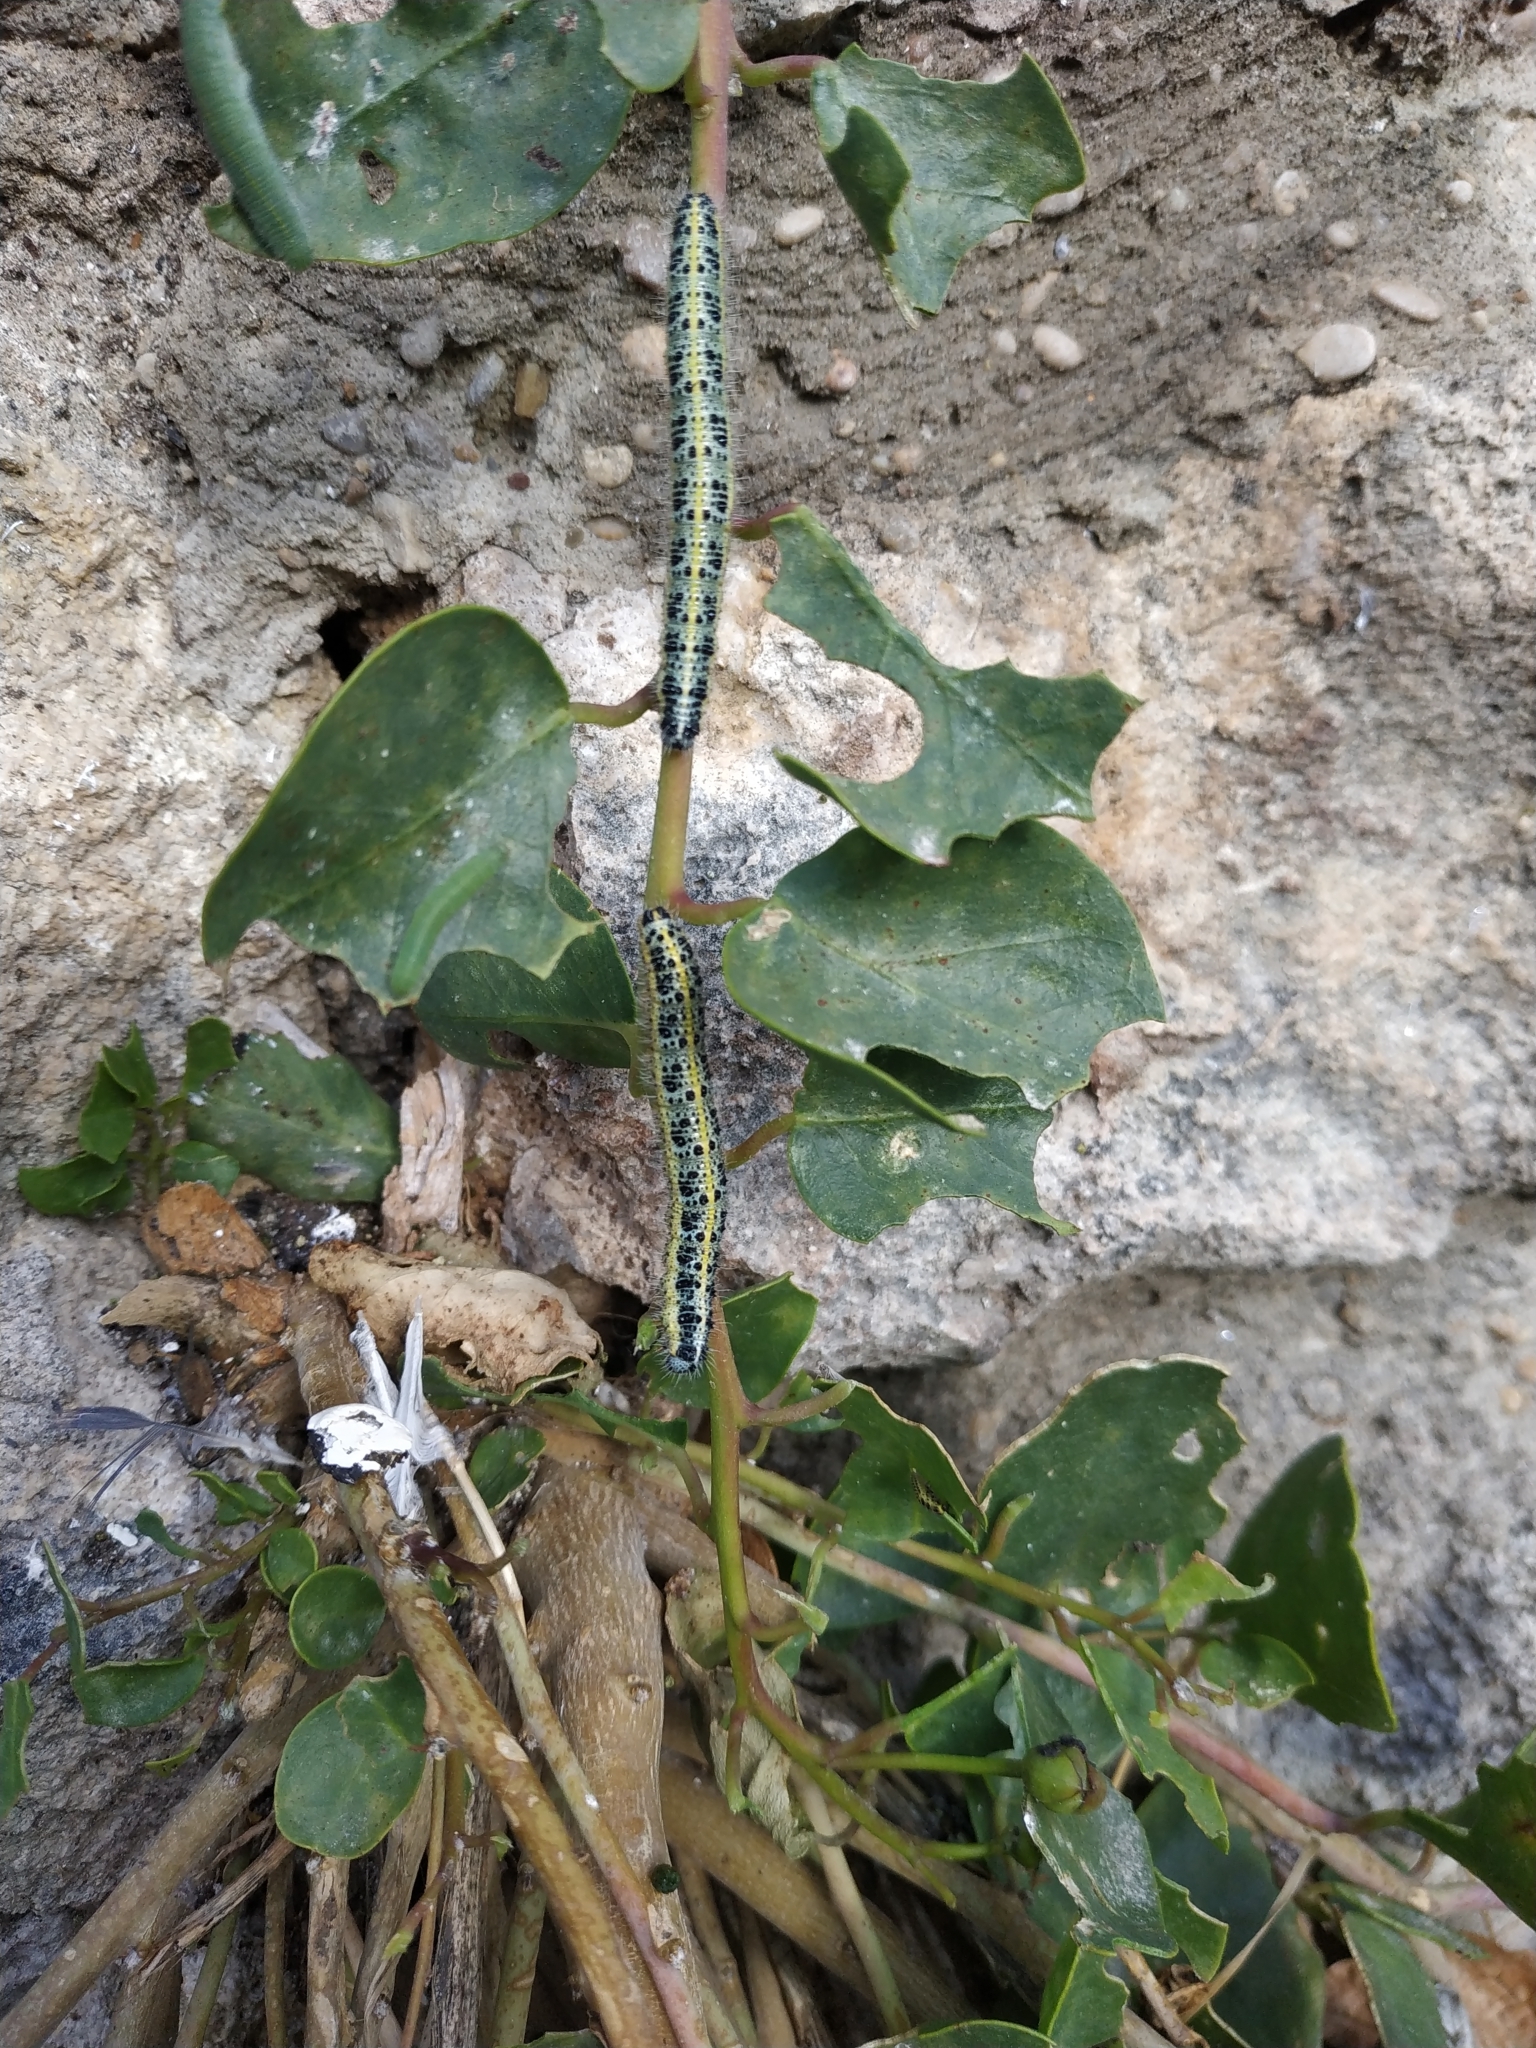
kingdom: Animalia
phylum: Arthropoda
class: Insecta
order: Lepidoptera
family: Pieridae
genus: Pieris
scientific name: Pieris brassicae
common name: Large white
